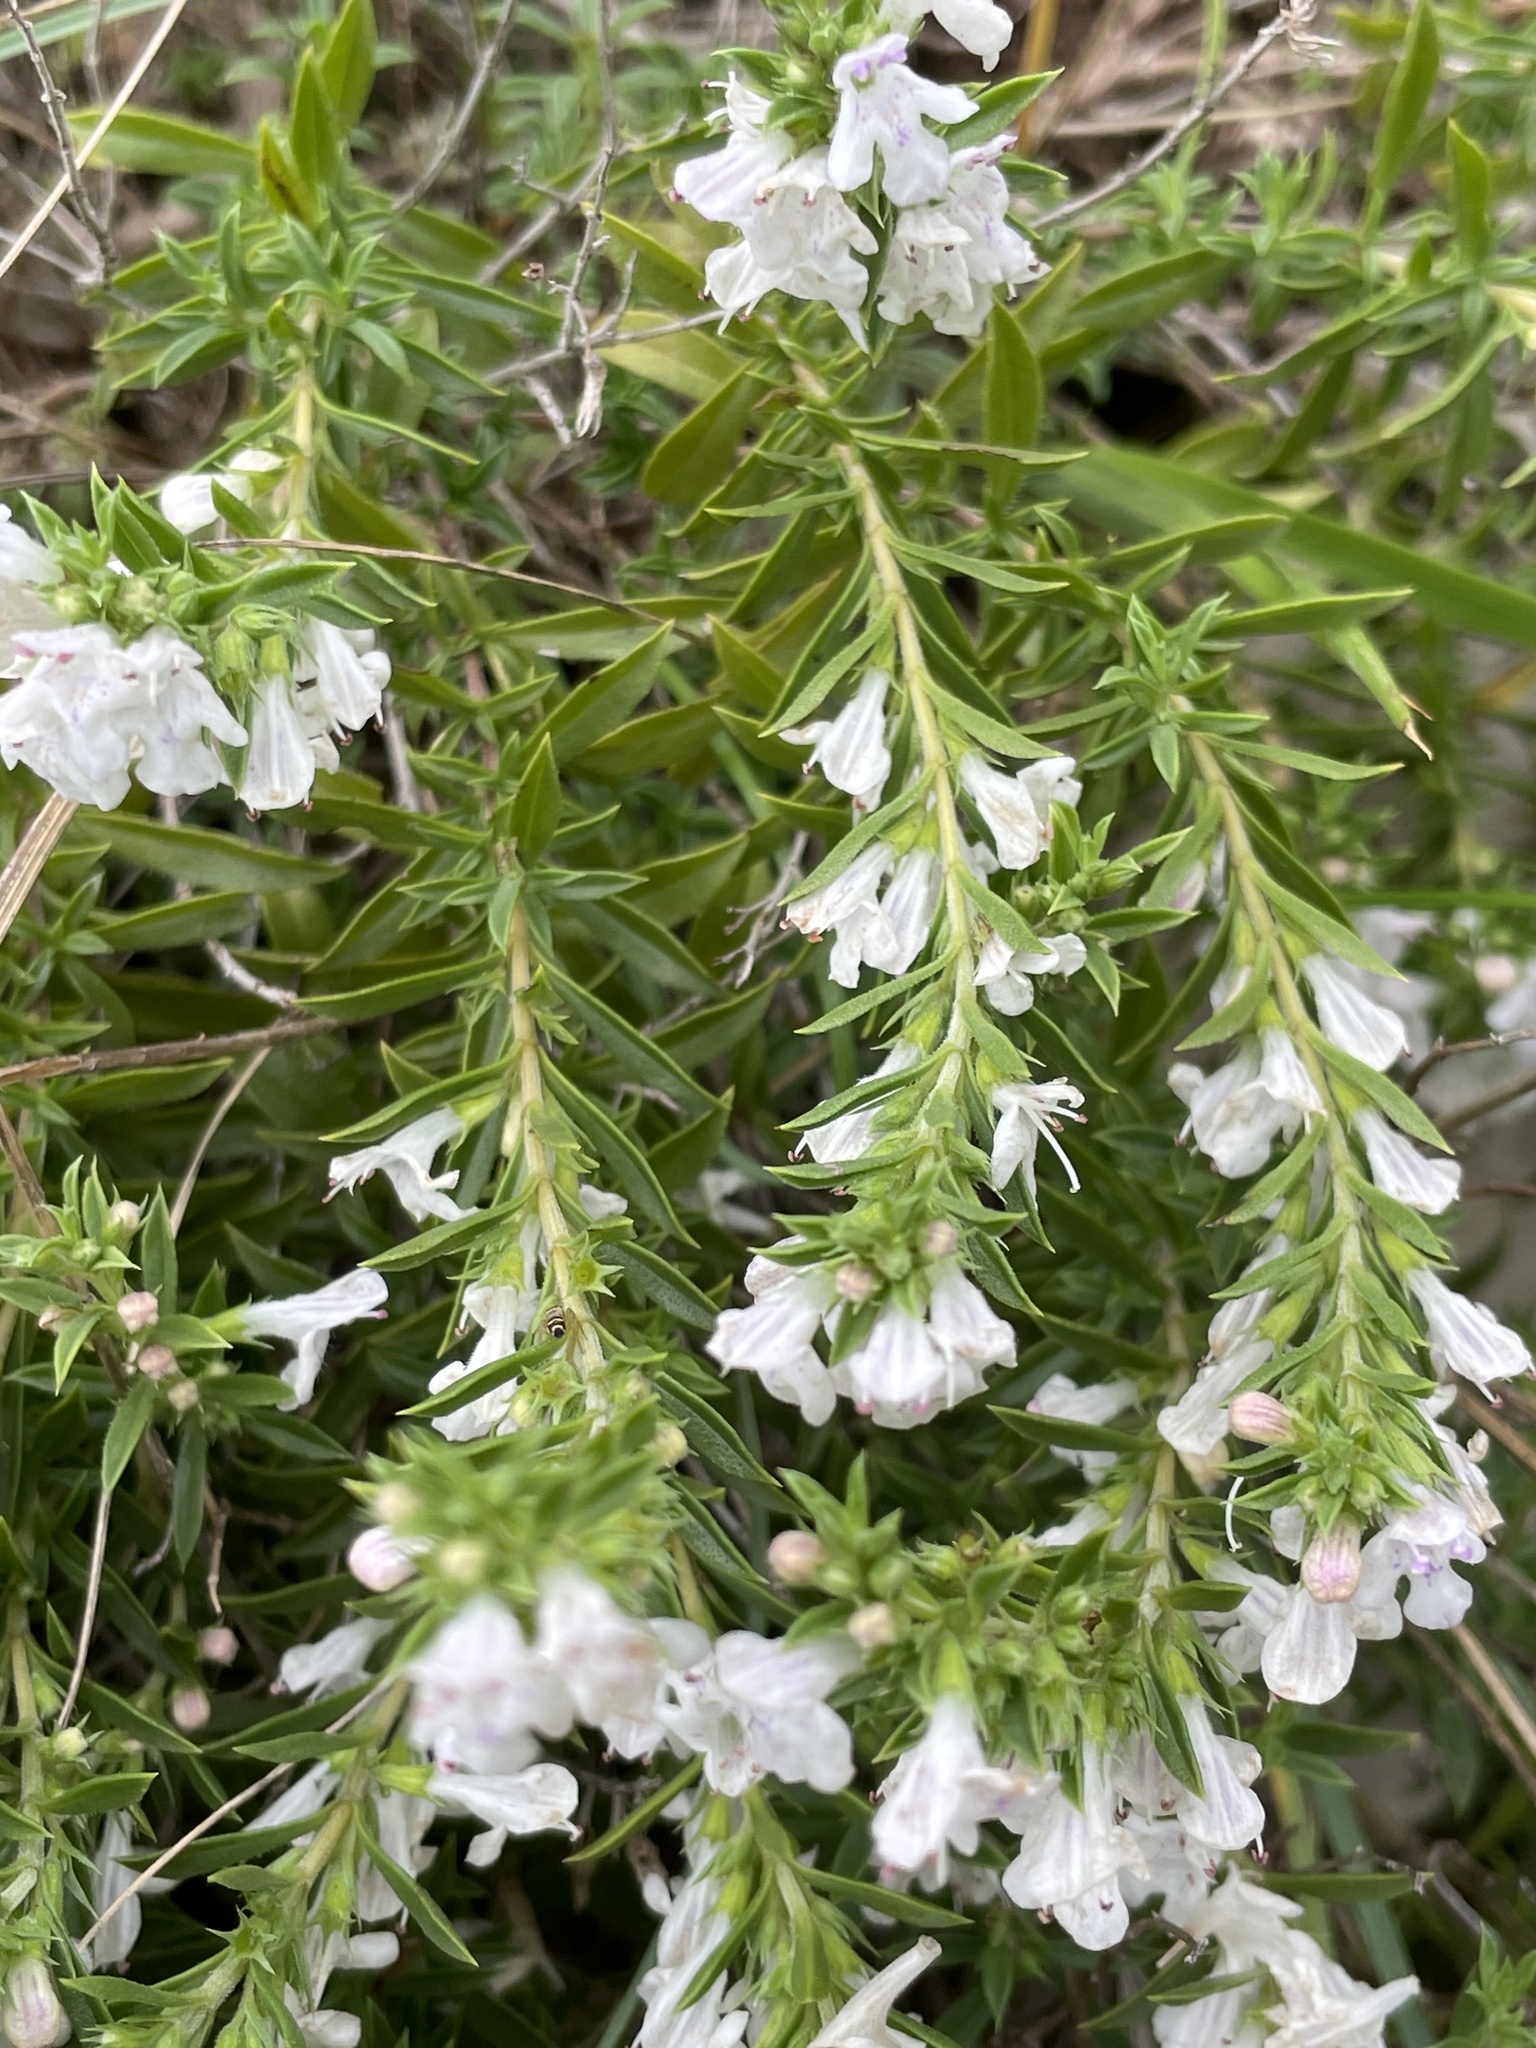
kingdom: Plantae
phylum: Tracheophyta
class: Magnoliopsida
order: Lamiales
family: Lamiaceae
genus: Satureja
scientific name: Satureja montana
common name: Winter savory
